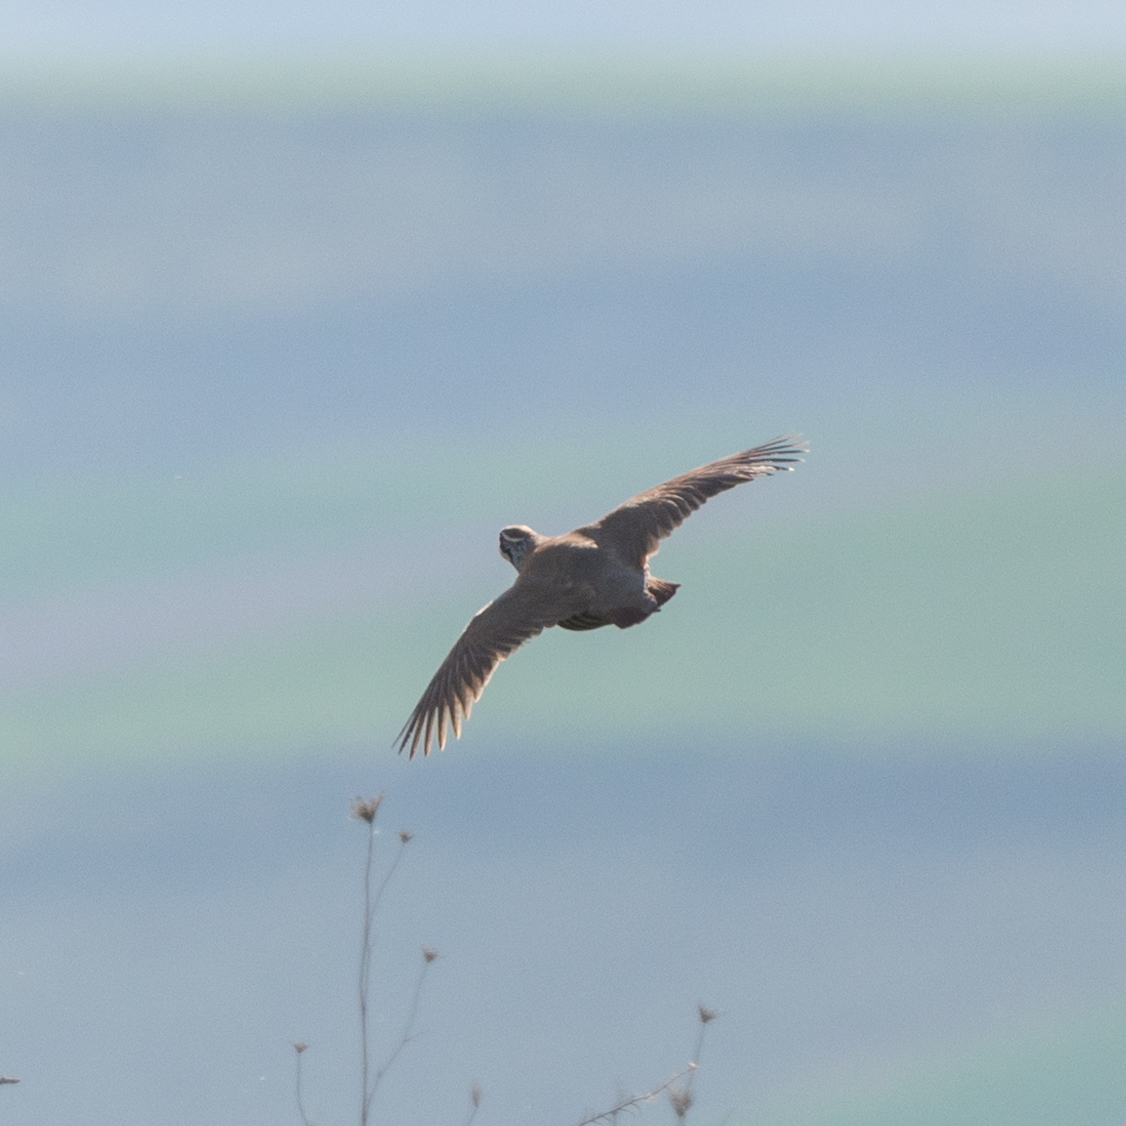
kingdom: Animalia
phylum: Chordata
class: Aves
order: Galliformes
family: Phasianidae
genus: Alectoris
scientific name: Alectoris rufa
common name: Red-legged partridge
